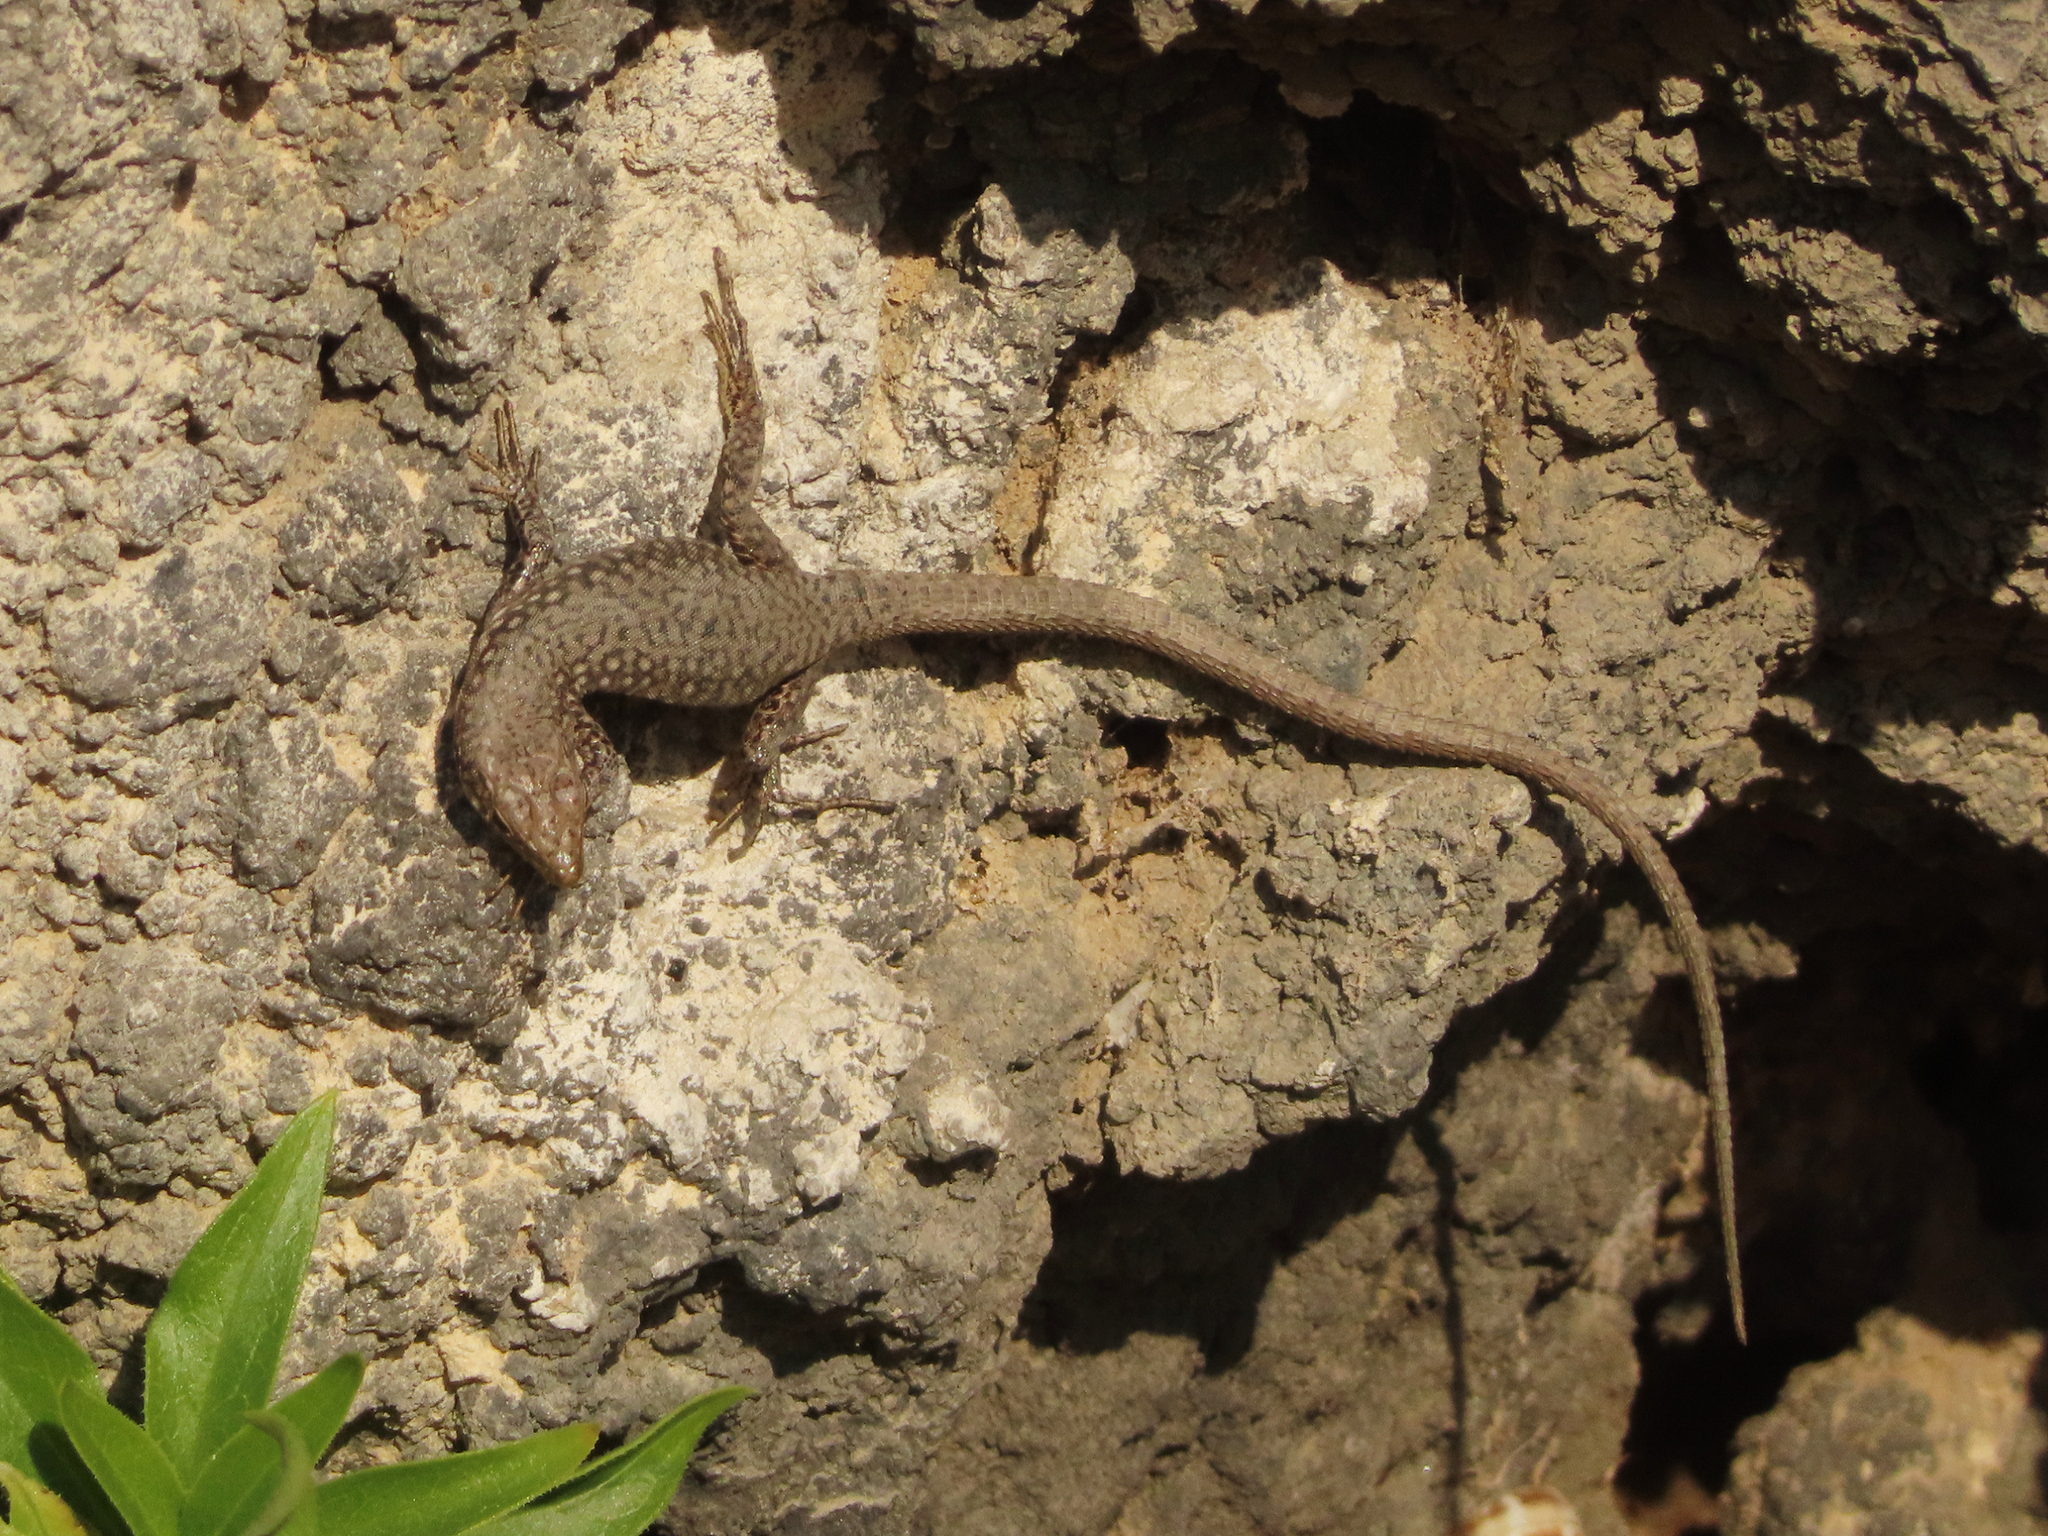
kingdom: Animalia
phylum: Chordata
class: Squamata
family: Lacertidae
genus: Darevskia
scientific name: Darevskia
